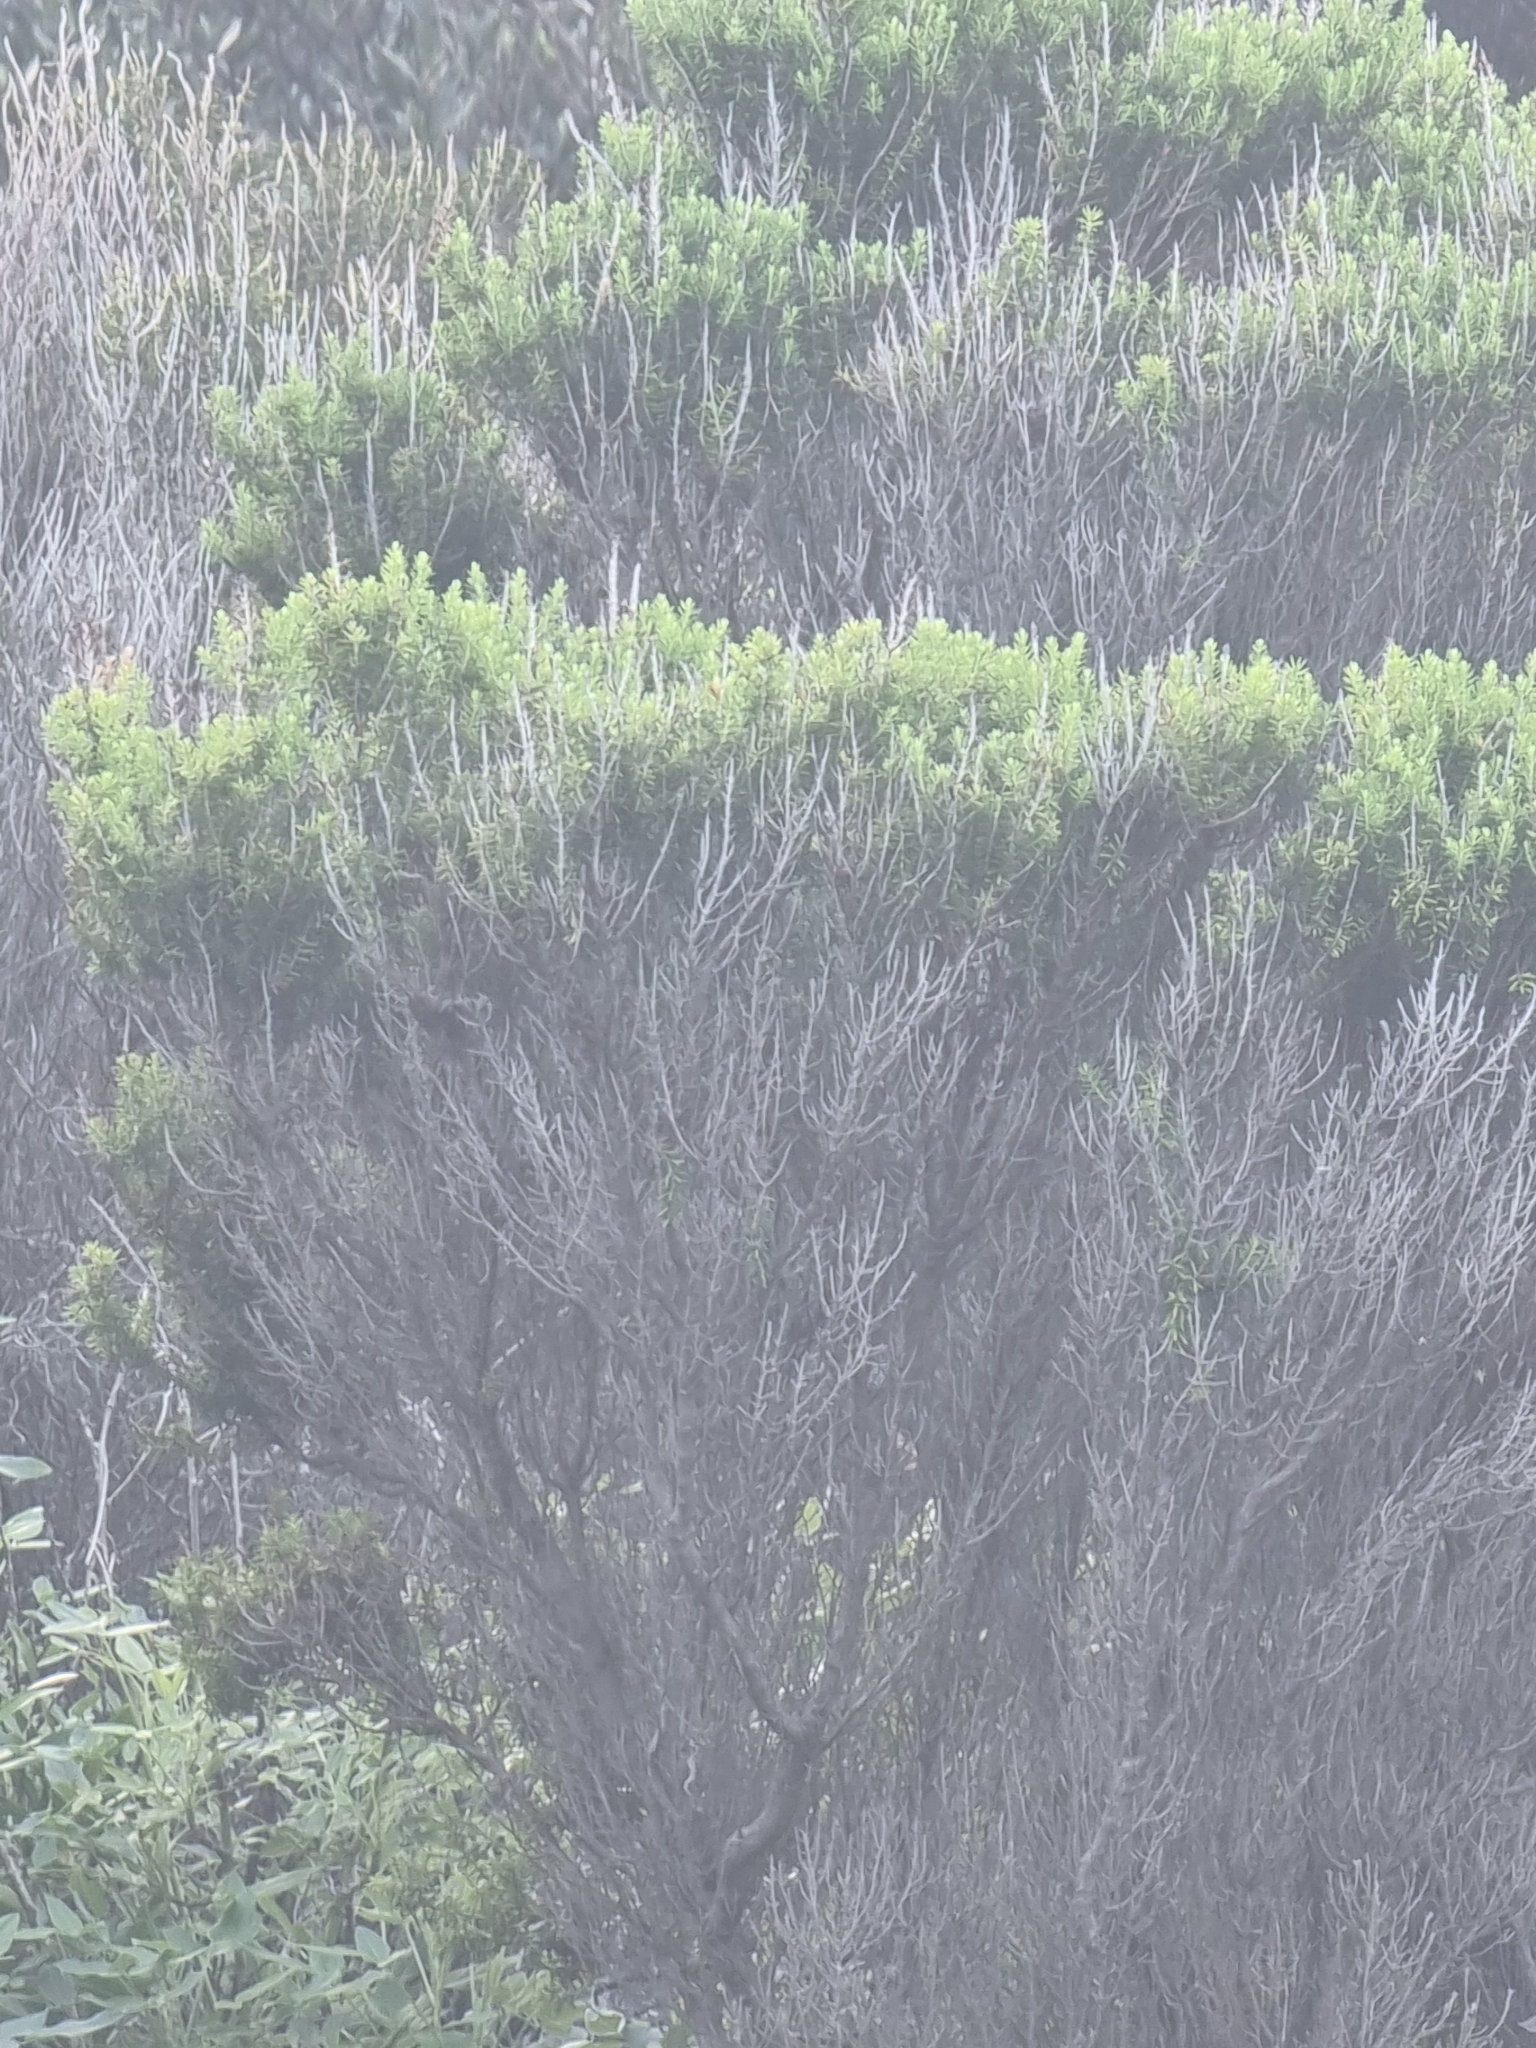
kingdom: Plantae
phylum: Tracheophyta
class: Magnoliopsida
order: Ericales
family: Ericaceae
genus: Erica
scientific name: Erica platycodon
